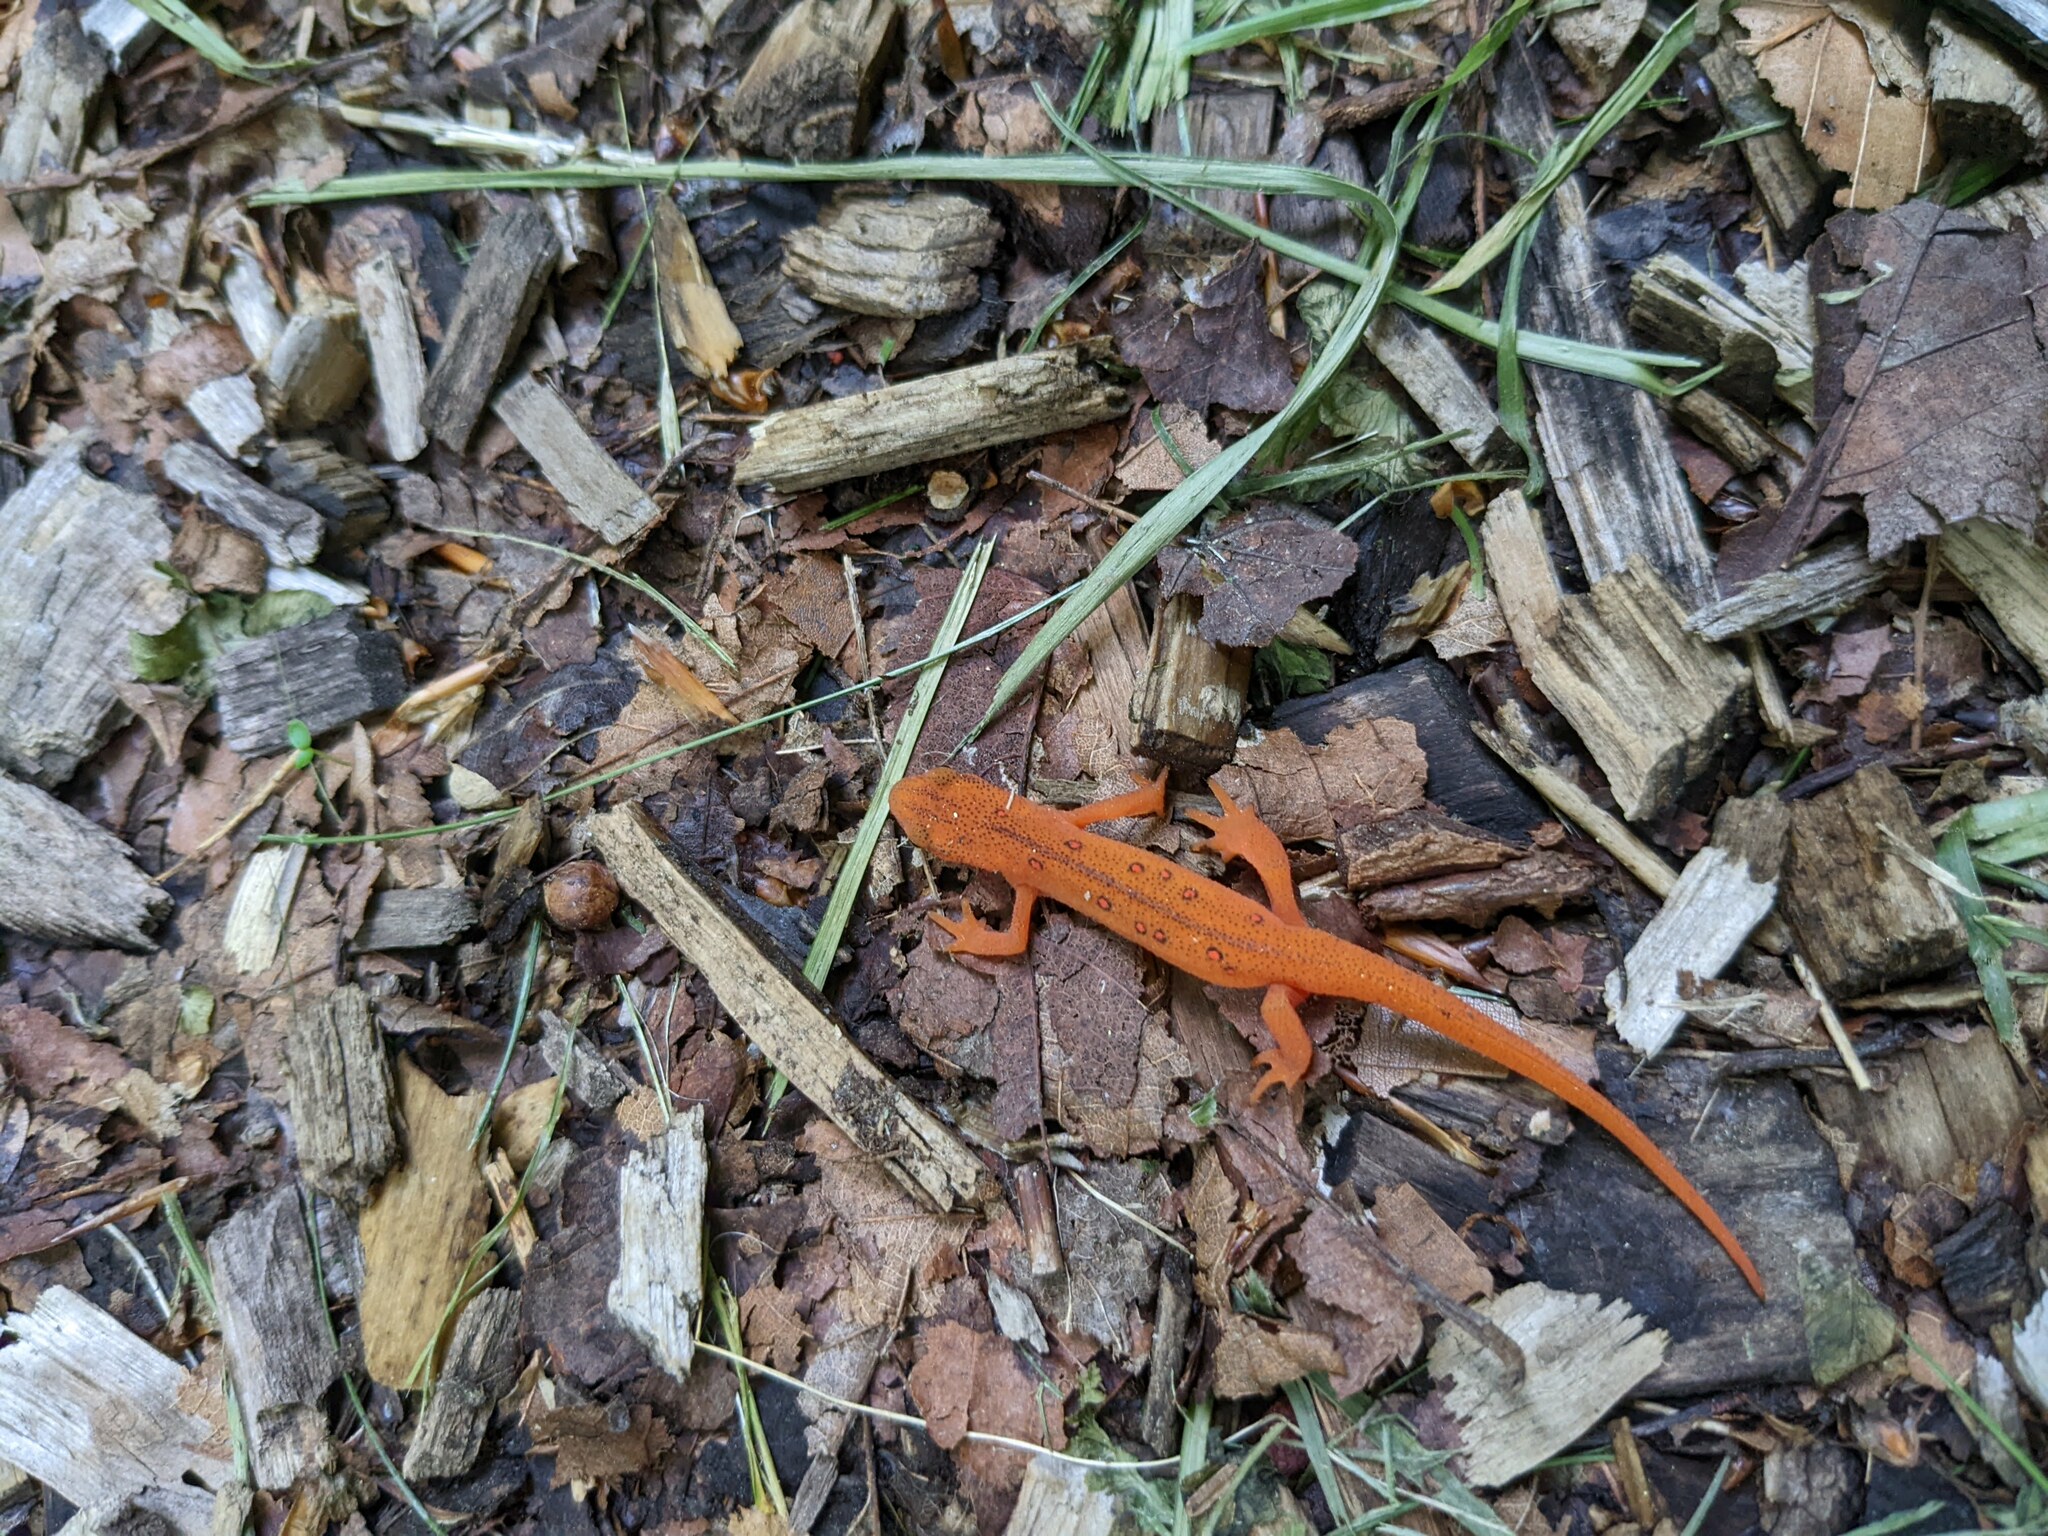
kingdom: Animalia
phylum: Chordata
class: Amphibia
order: Caudata
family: Salamandridae
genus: Notophthalmus
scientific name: Notophthalmus viridescens
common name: Eastern newt
